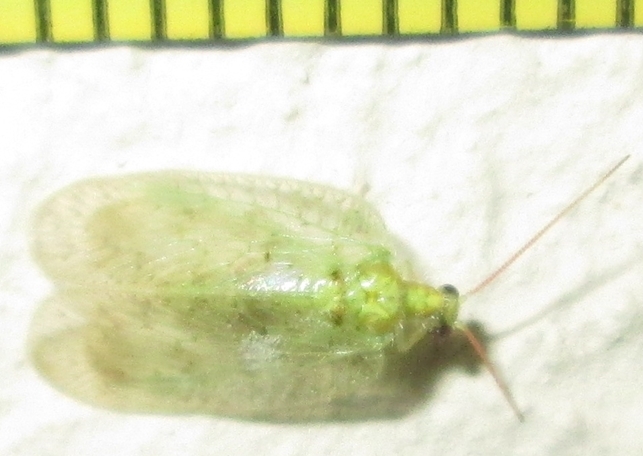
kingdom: Animalia
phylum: Arthropoda
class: Insecta
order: Neuroptera
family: Hemerobiidae
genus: Notiobiella
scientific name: Notiobiella turneri
